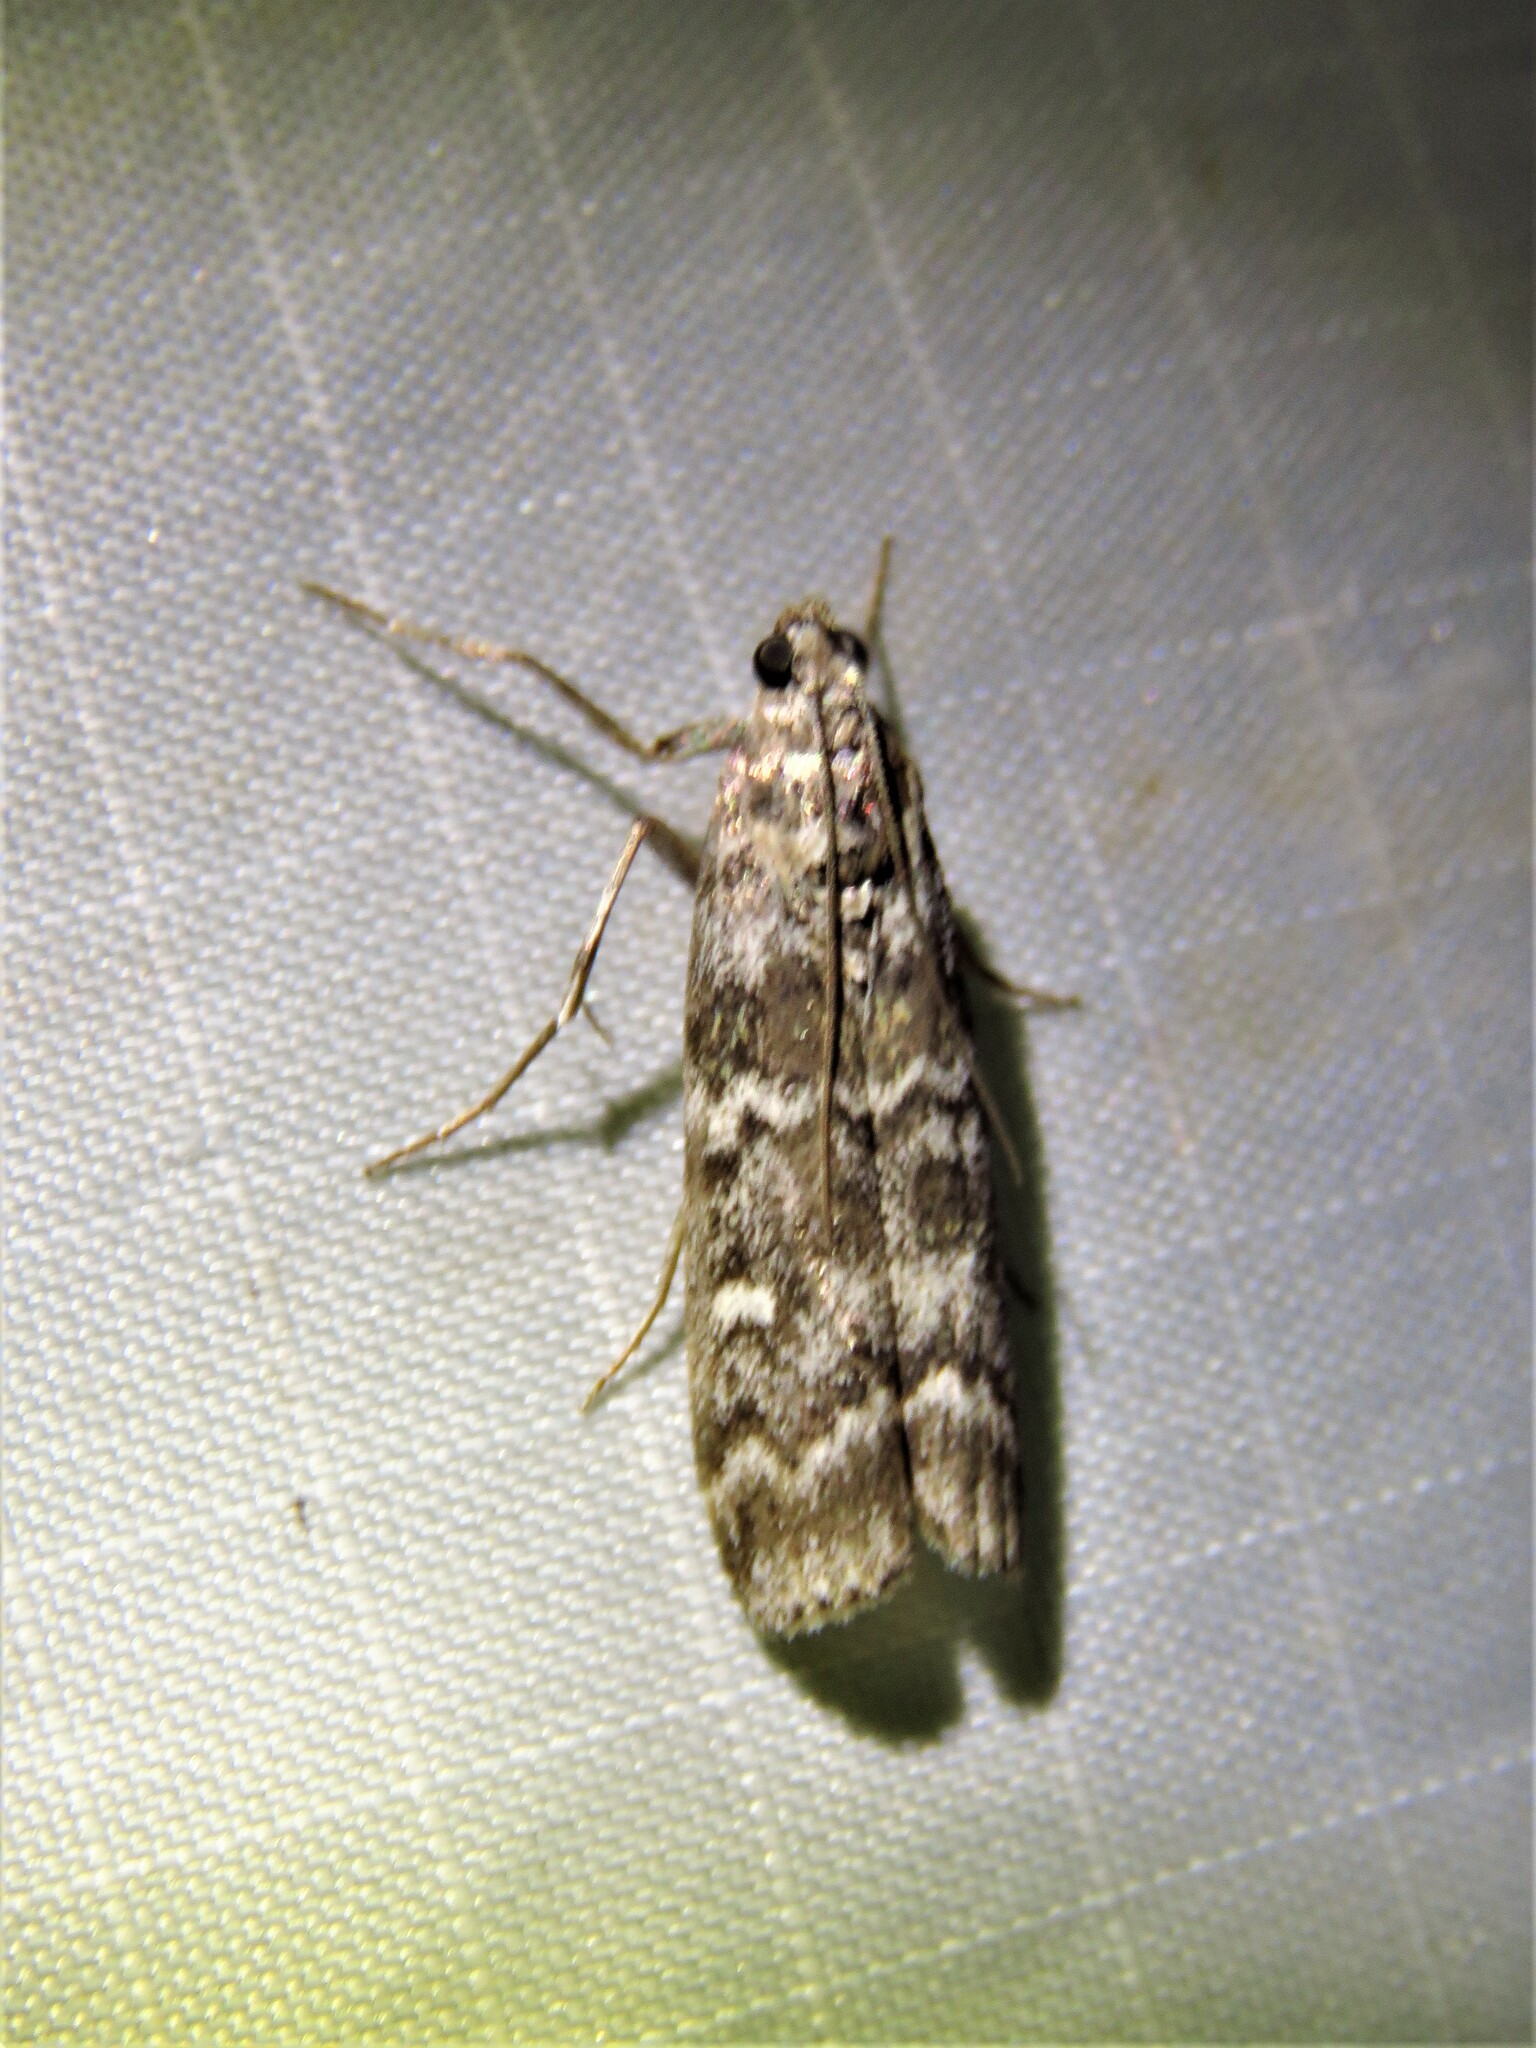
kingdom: Animalia
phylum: Arthropoda
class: Insecta
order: Lepidoptera
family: Pyralidae
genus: Dioryctria
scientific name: Dioryctria abietella
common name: Dark pine knot-horn
